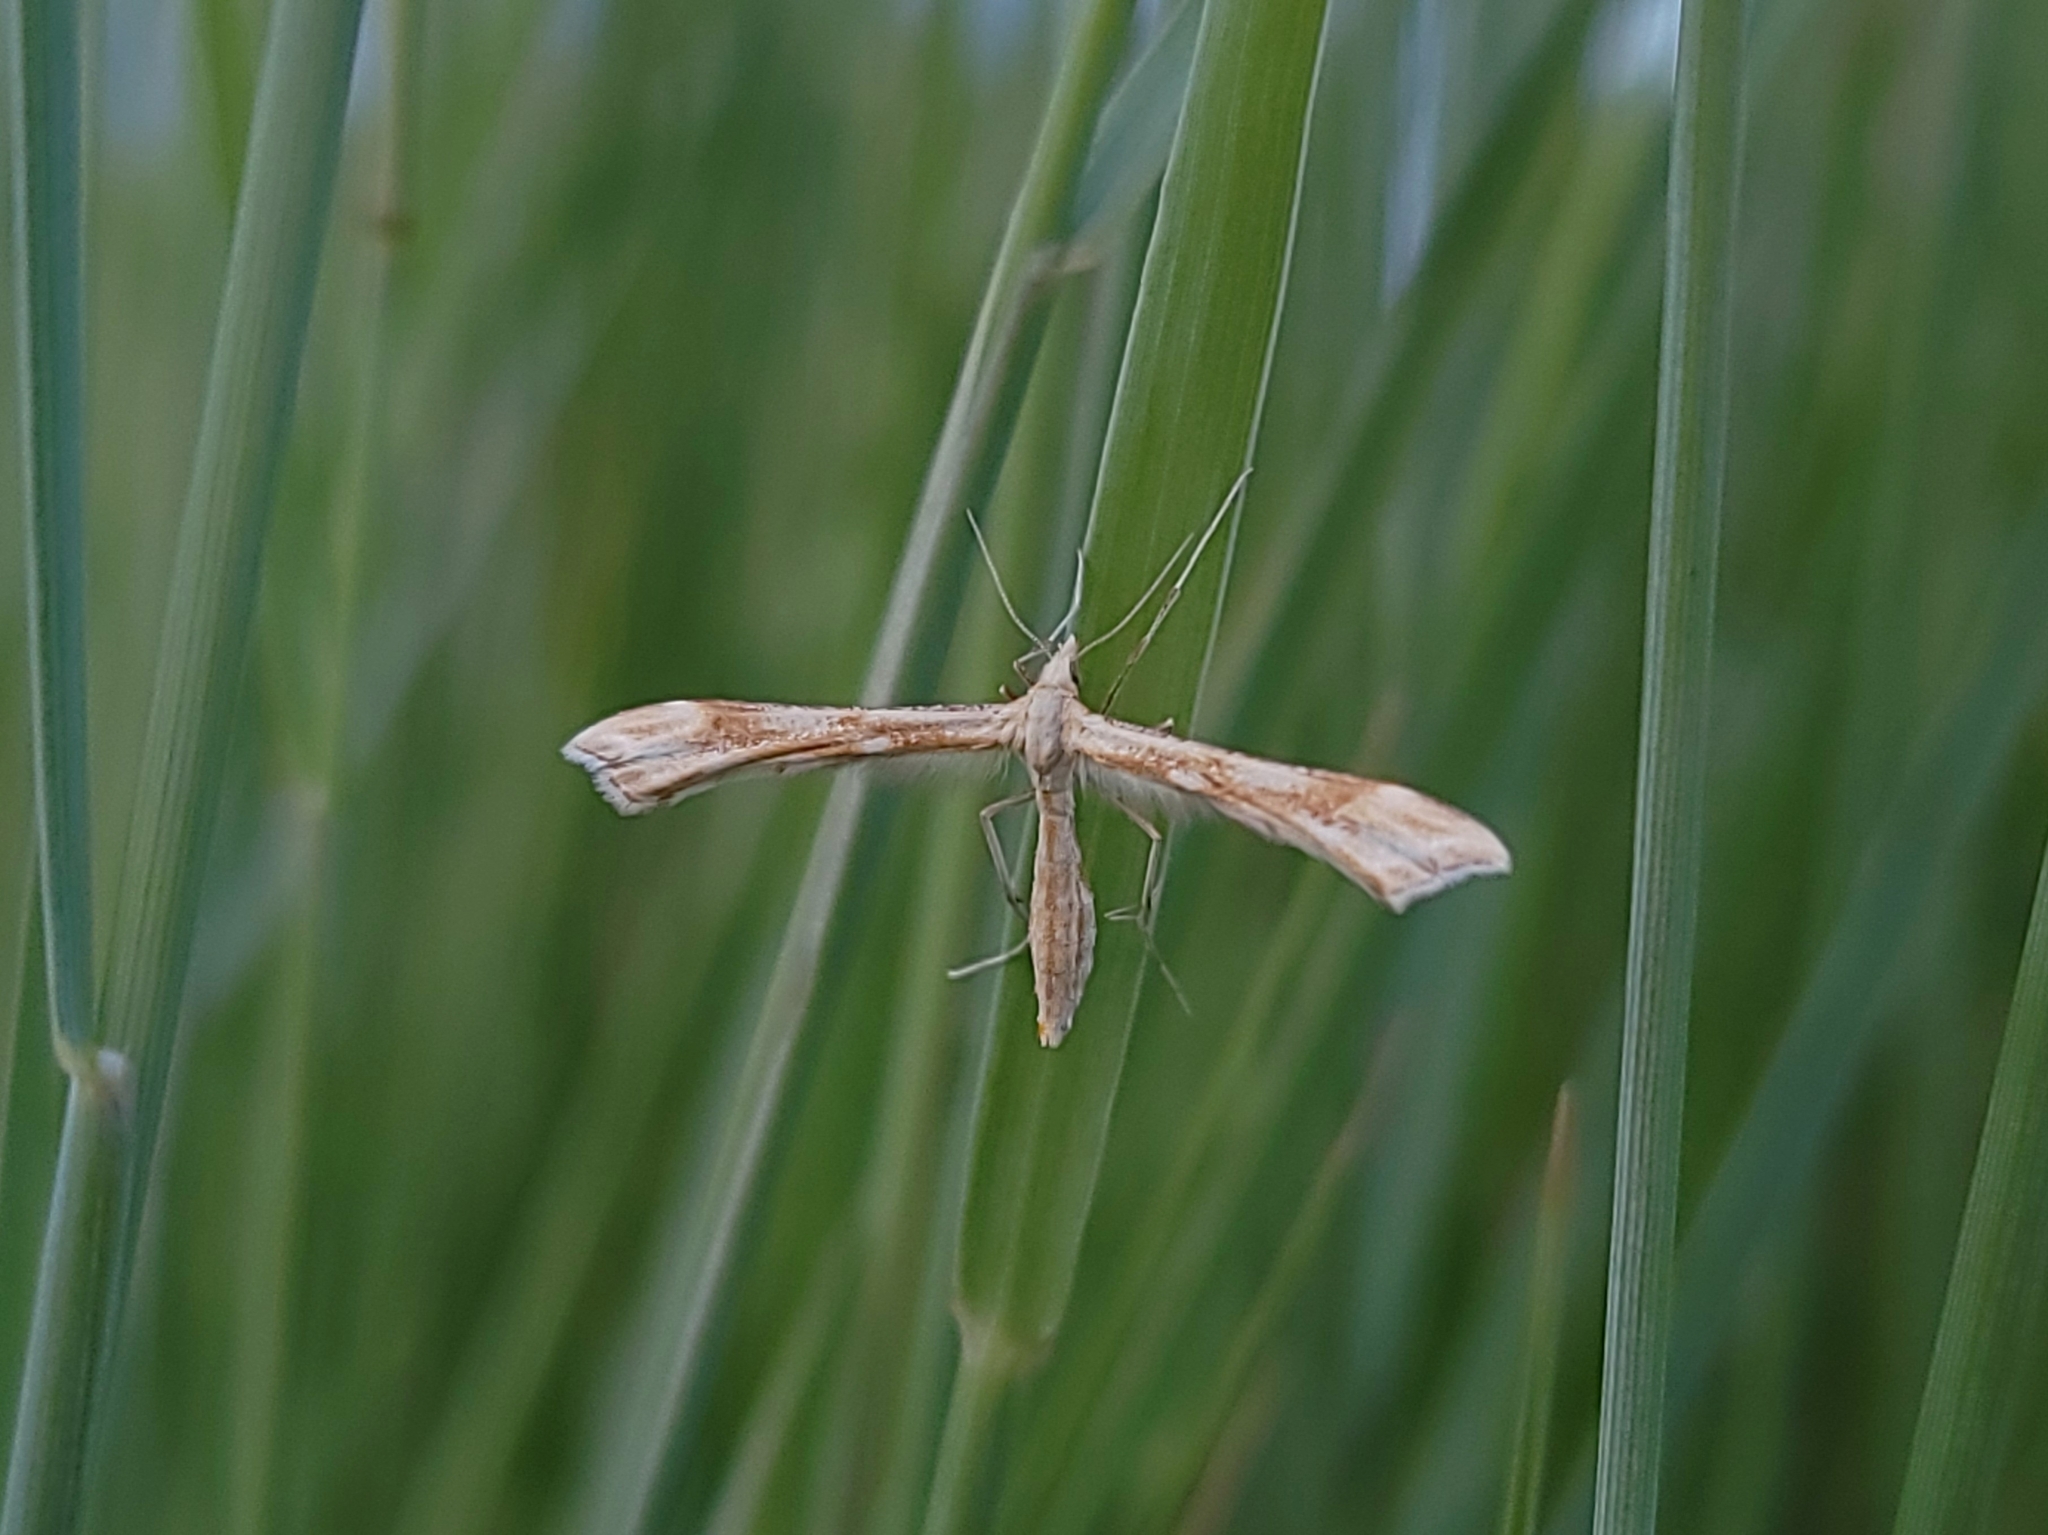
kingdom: Animalia
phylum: Arthropoda
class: Insecta
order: Lepidoptera
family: Pterophoridae
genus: Gillmeria
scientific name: Gillmeria pallidactyla
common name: Yarrow plume
